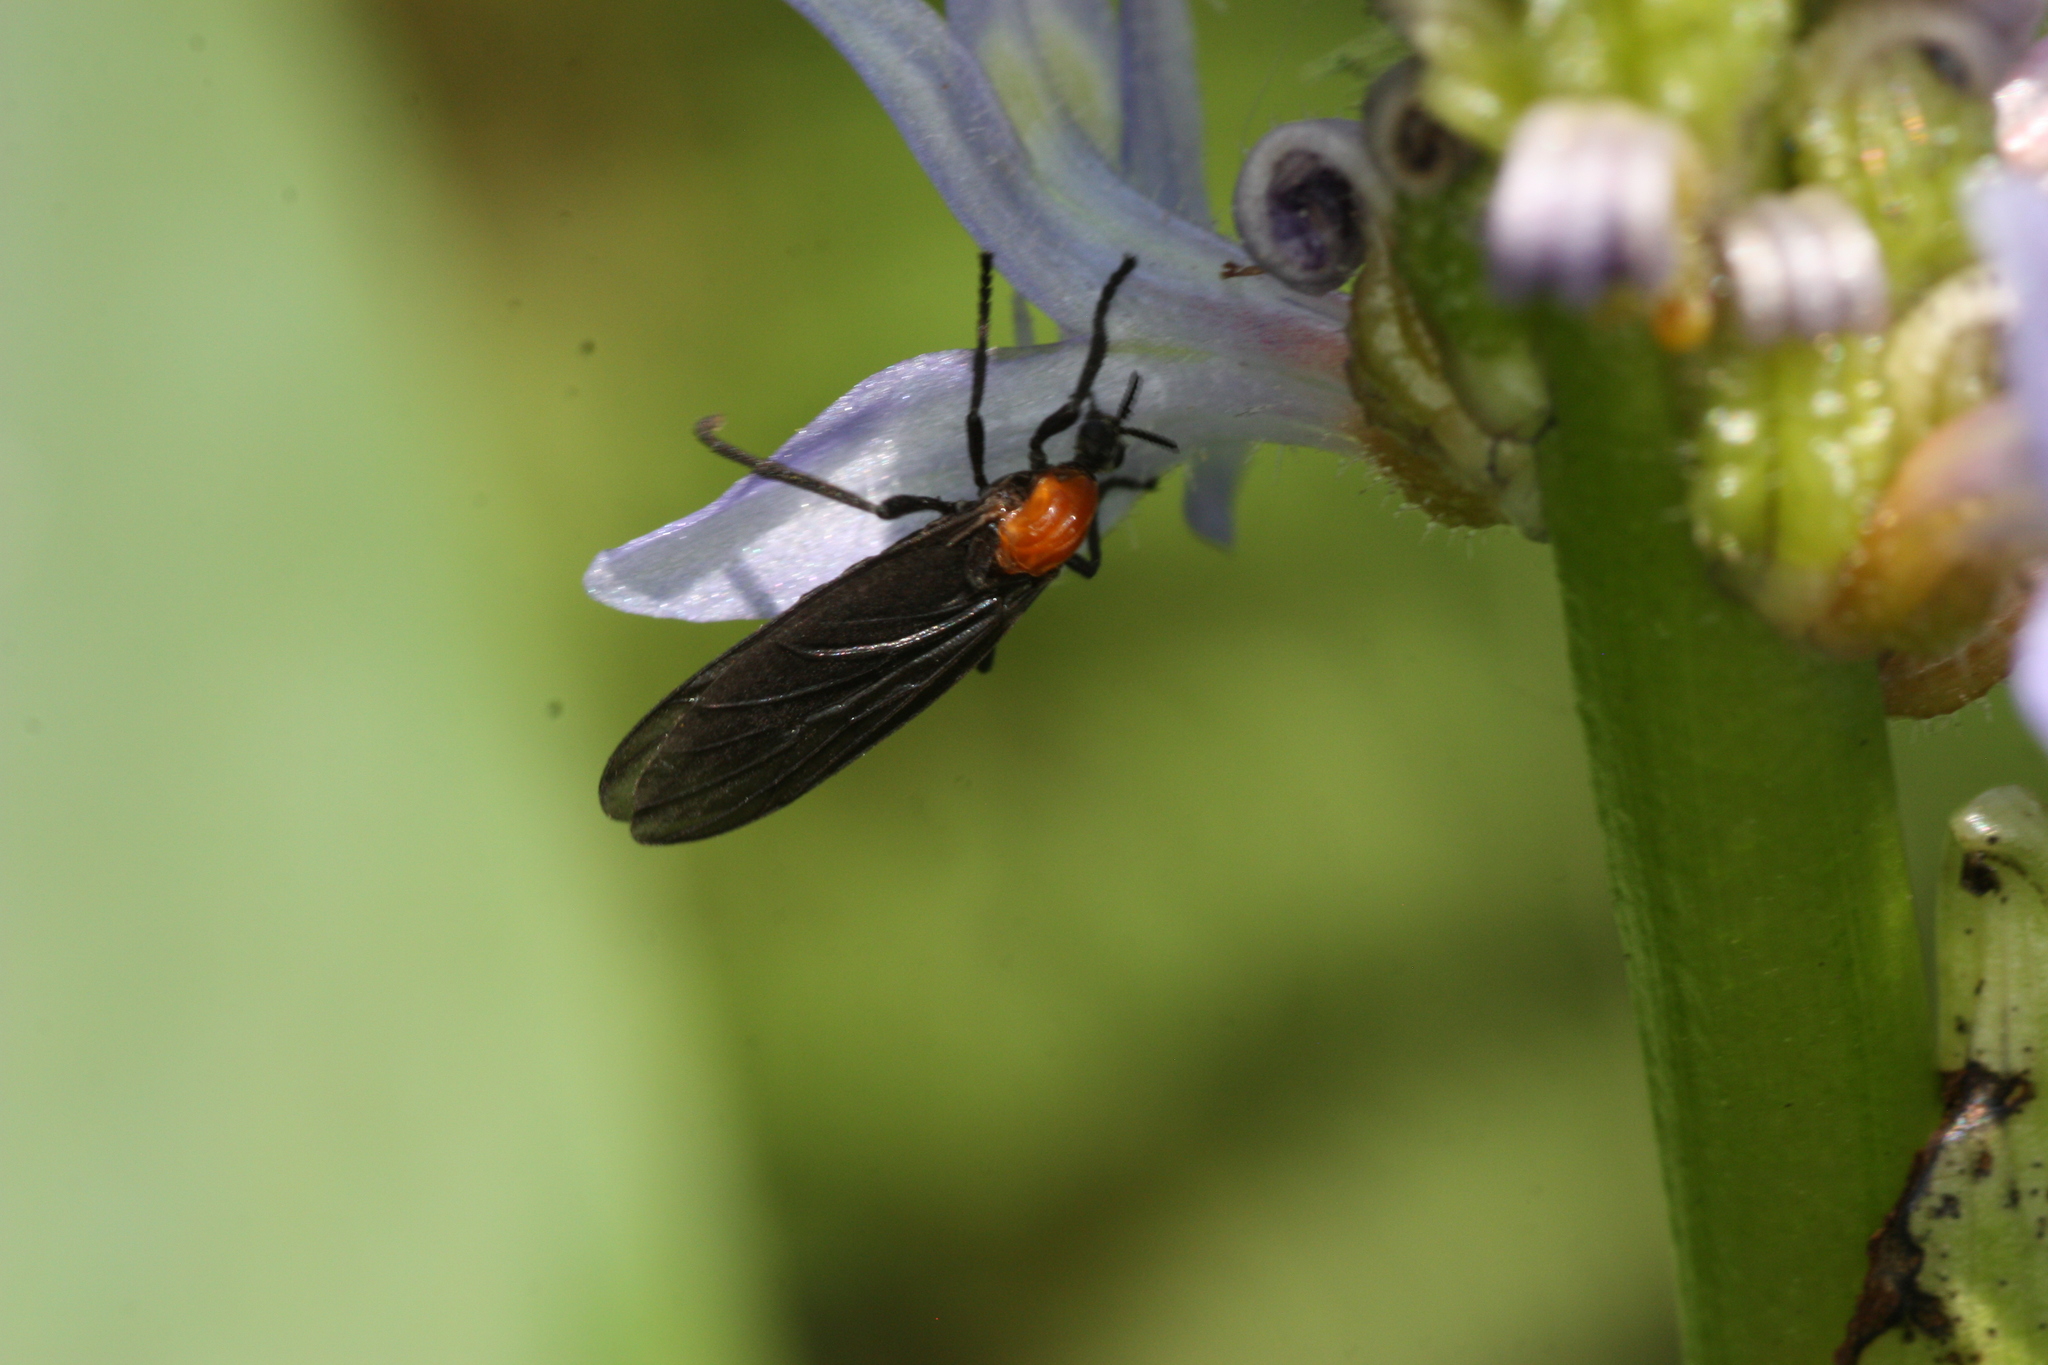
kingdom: Animalia
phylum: Arthropoda
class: Insecta
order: Diptera
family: Bibionidae
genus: Plecia
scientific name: Plecia nearctica
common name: March fly
